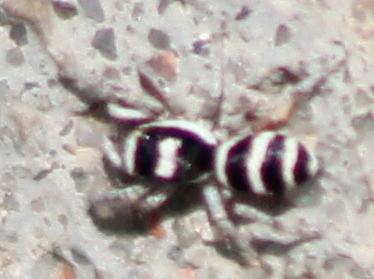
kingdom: Animalia
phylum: Arthropoda
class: Arachnida
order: Araneae
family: Salticidae
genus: Salticus
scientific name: Salticus austinensis
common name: Jumping spiders
